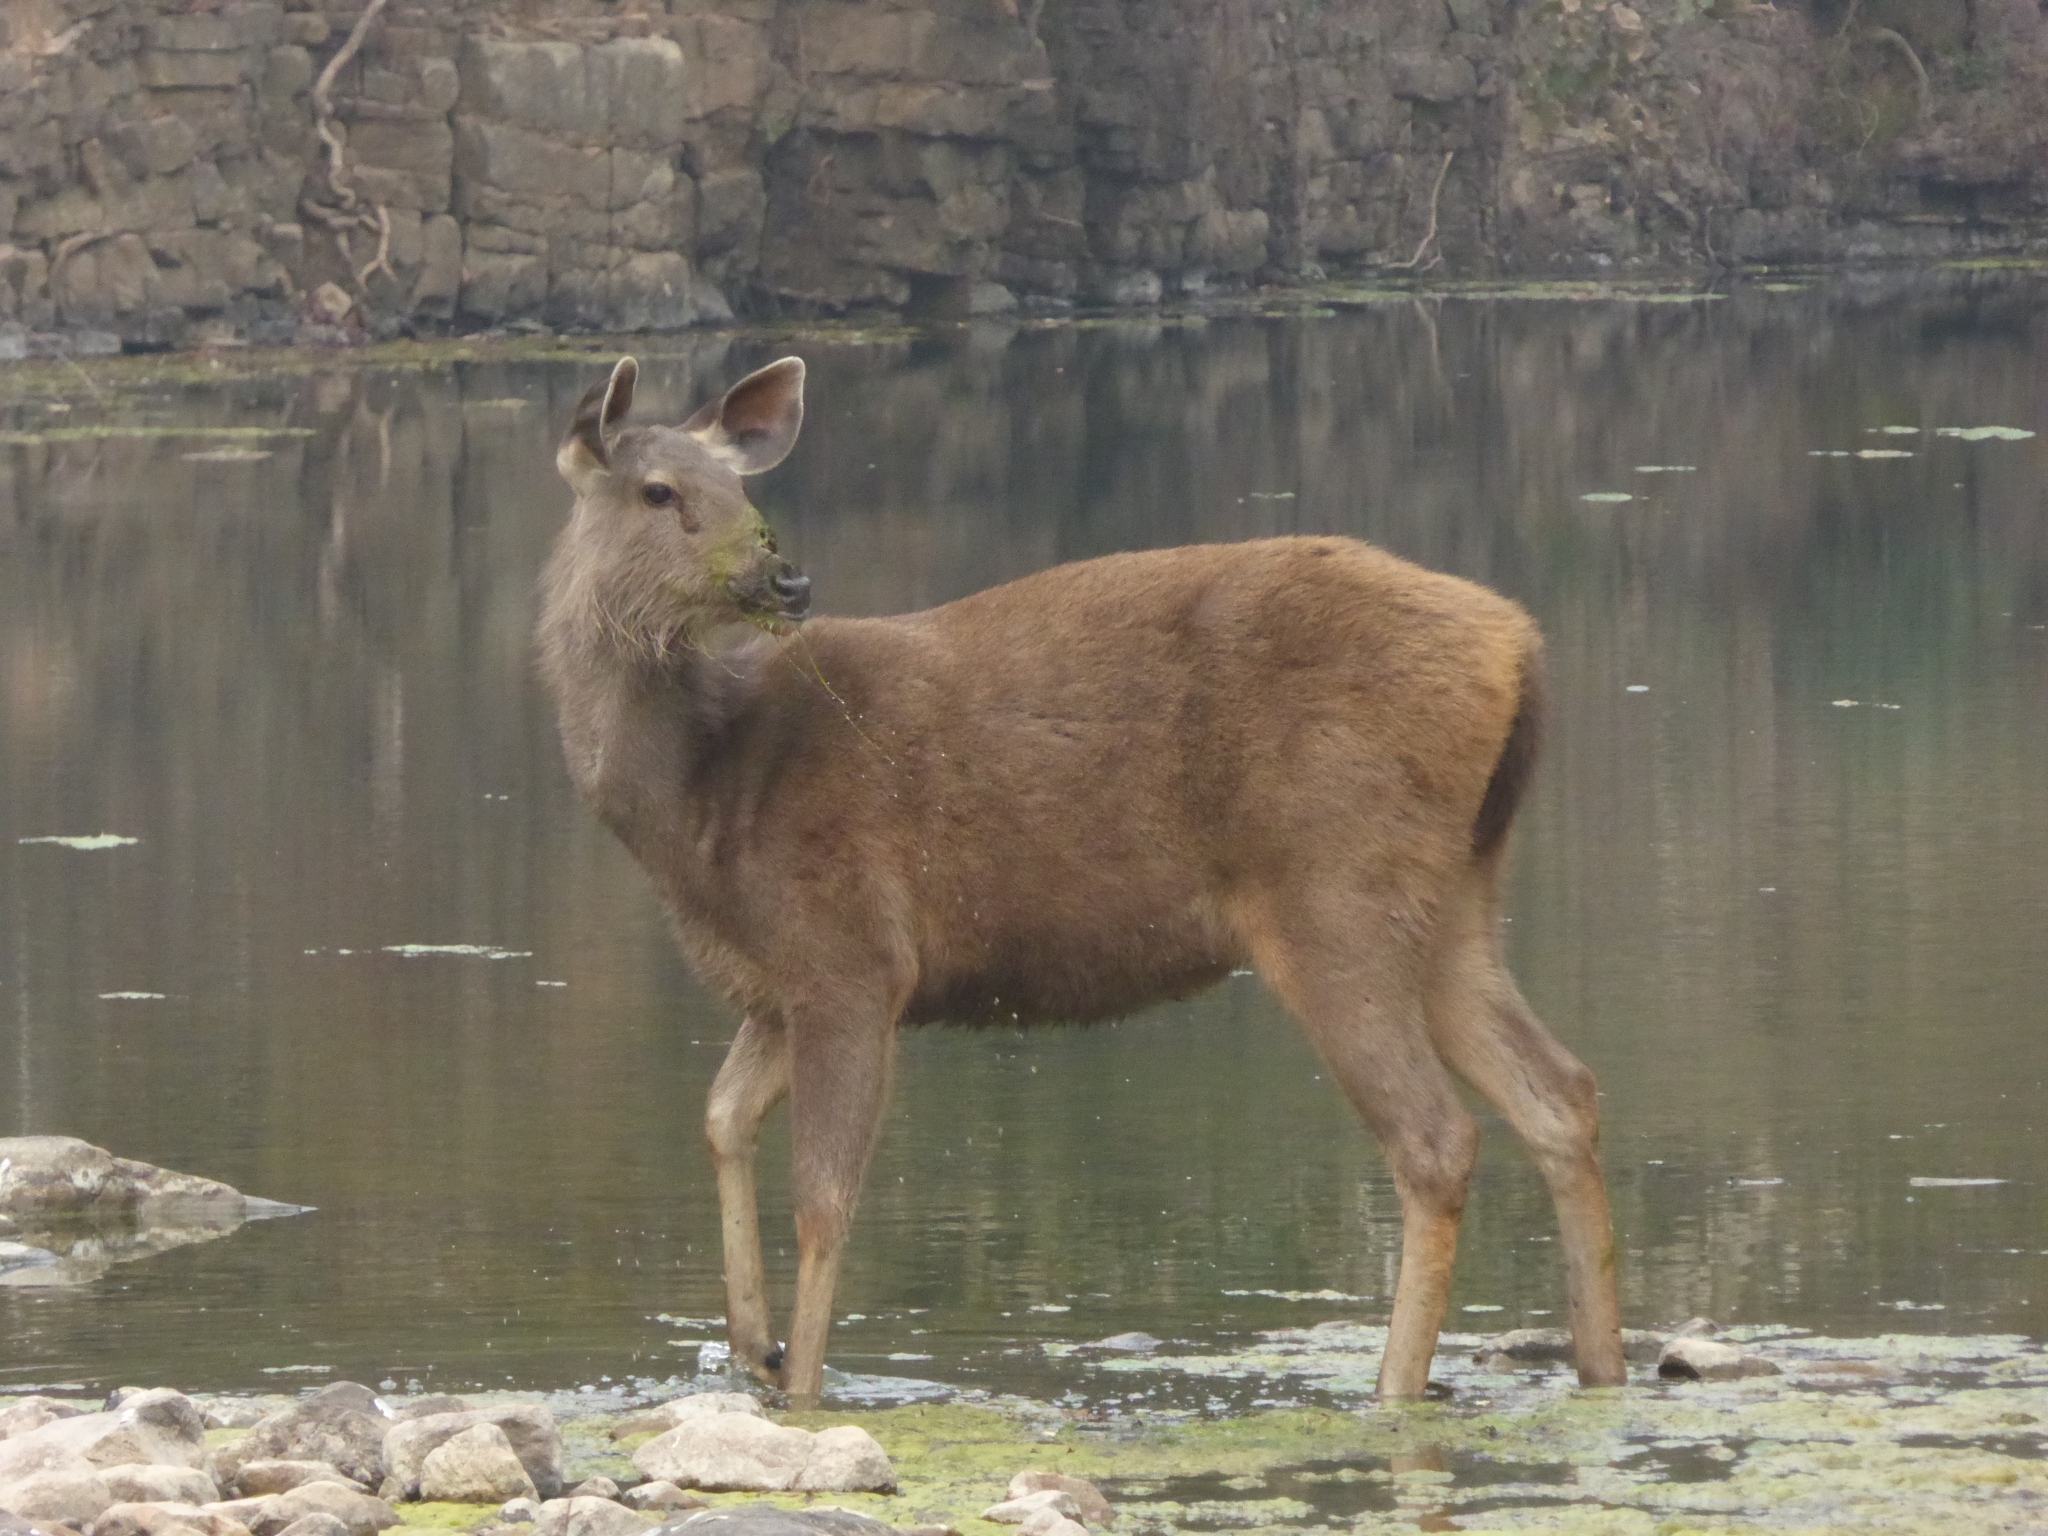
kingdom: Animalia
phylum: Chordata
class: Mammalia
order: Artiodactyla
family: Cervidae
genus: Rusa
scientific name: Rusa unicolor
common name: Sambar
